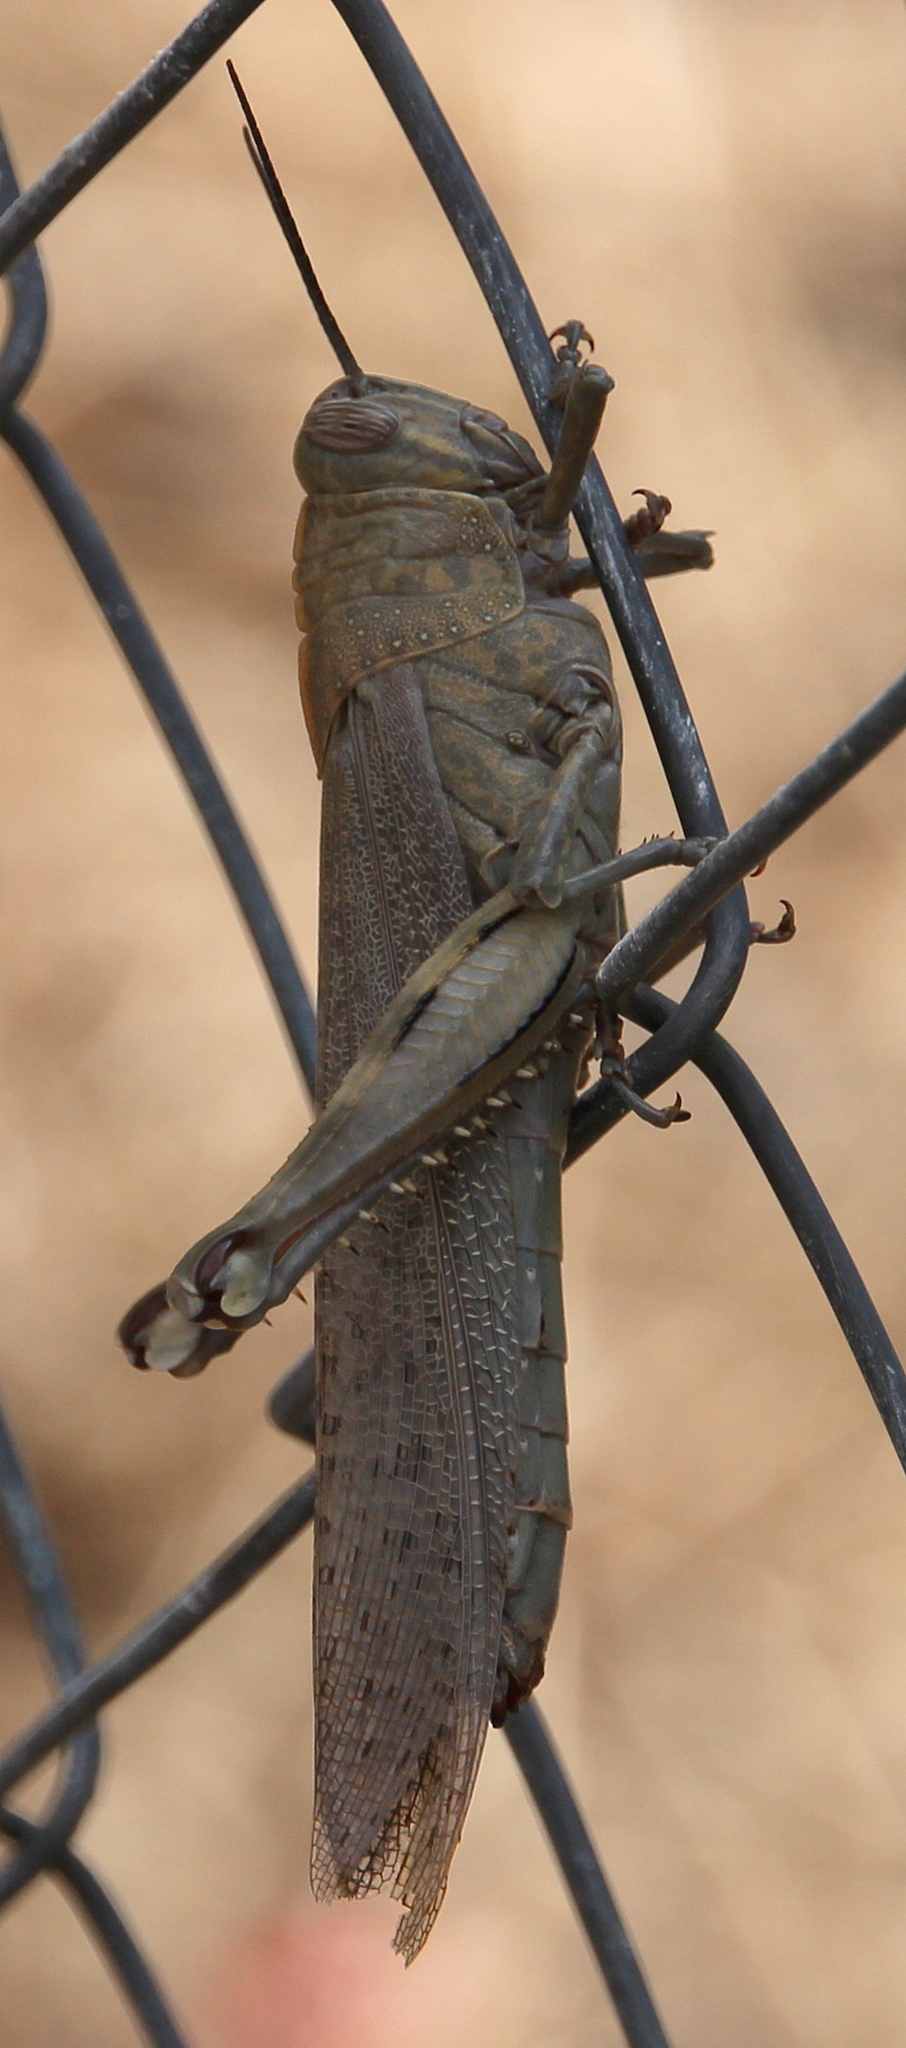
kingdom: Animalia
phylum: Arthropoda
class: Insecta
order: Orthoptera
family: Acrididae
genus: Anacridium
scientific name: Anacridium aegyptium
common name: Egyptian grasshopper
